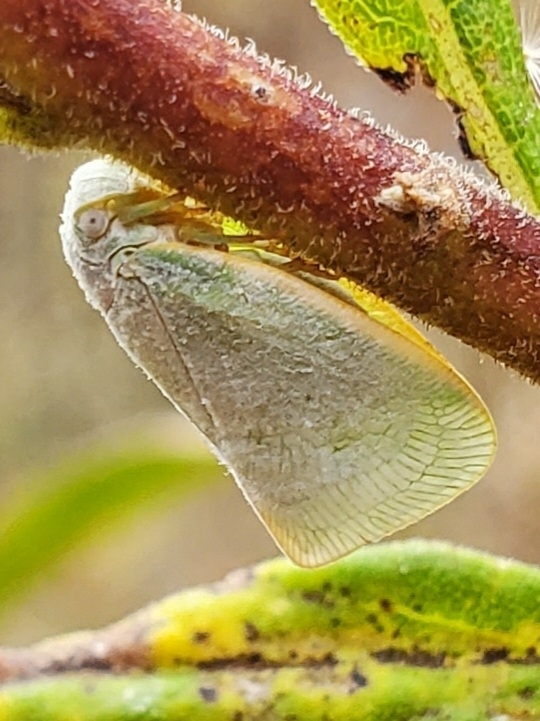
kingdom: Animalia
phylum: Arthropoda
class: Insecta
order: Hemiptera
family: Flatidae
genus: Flatormenis
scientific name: Flatormenis proxima
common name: Northern flatid planthopper
